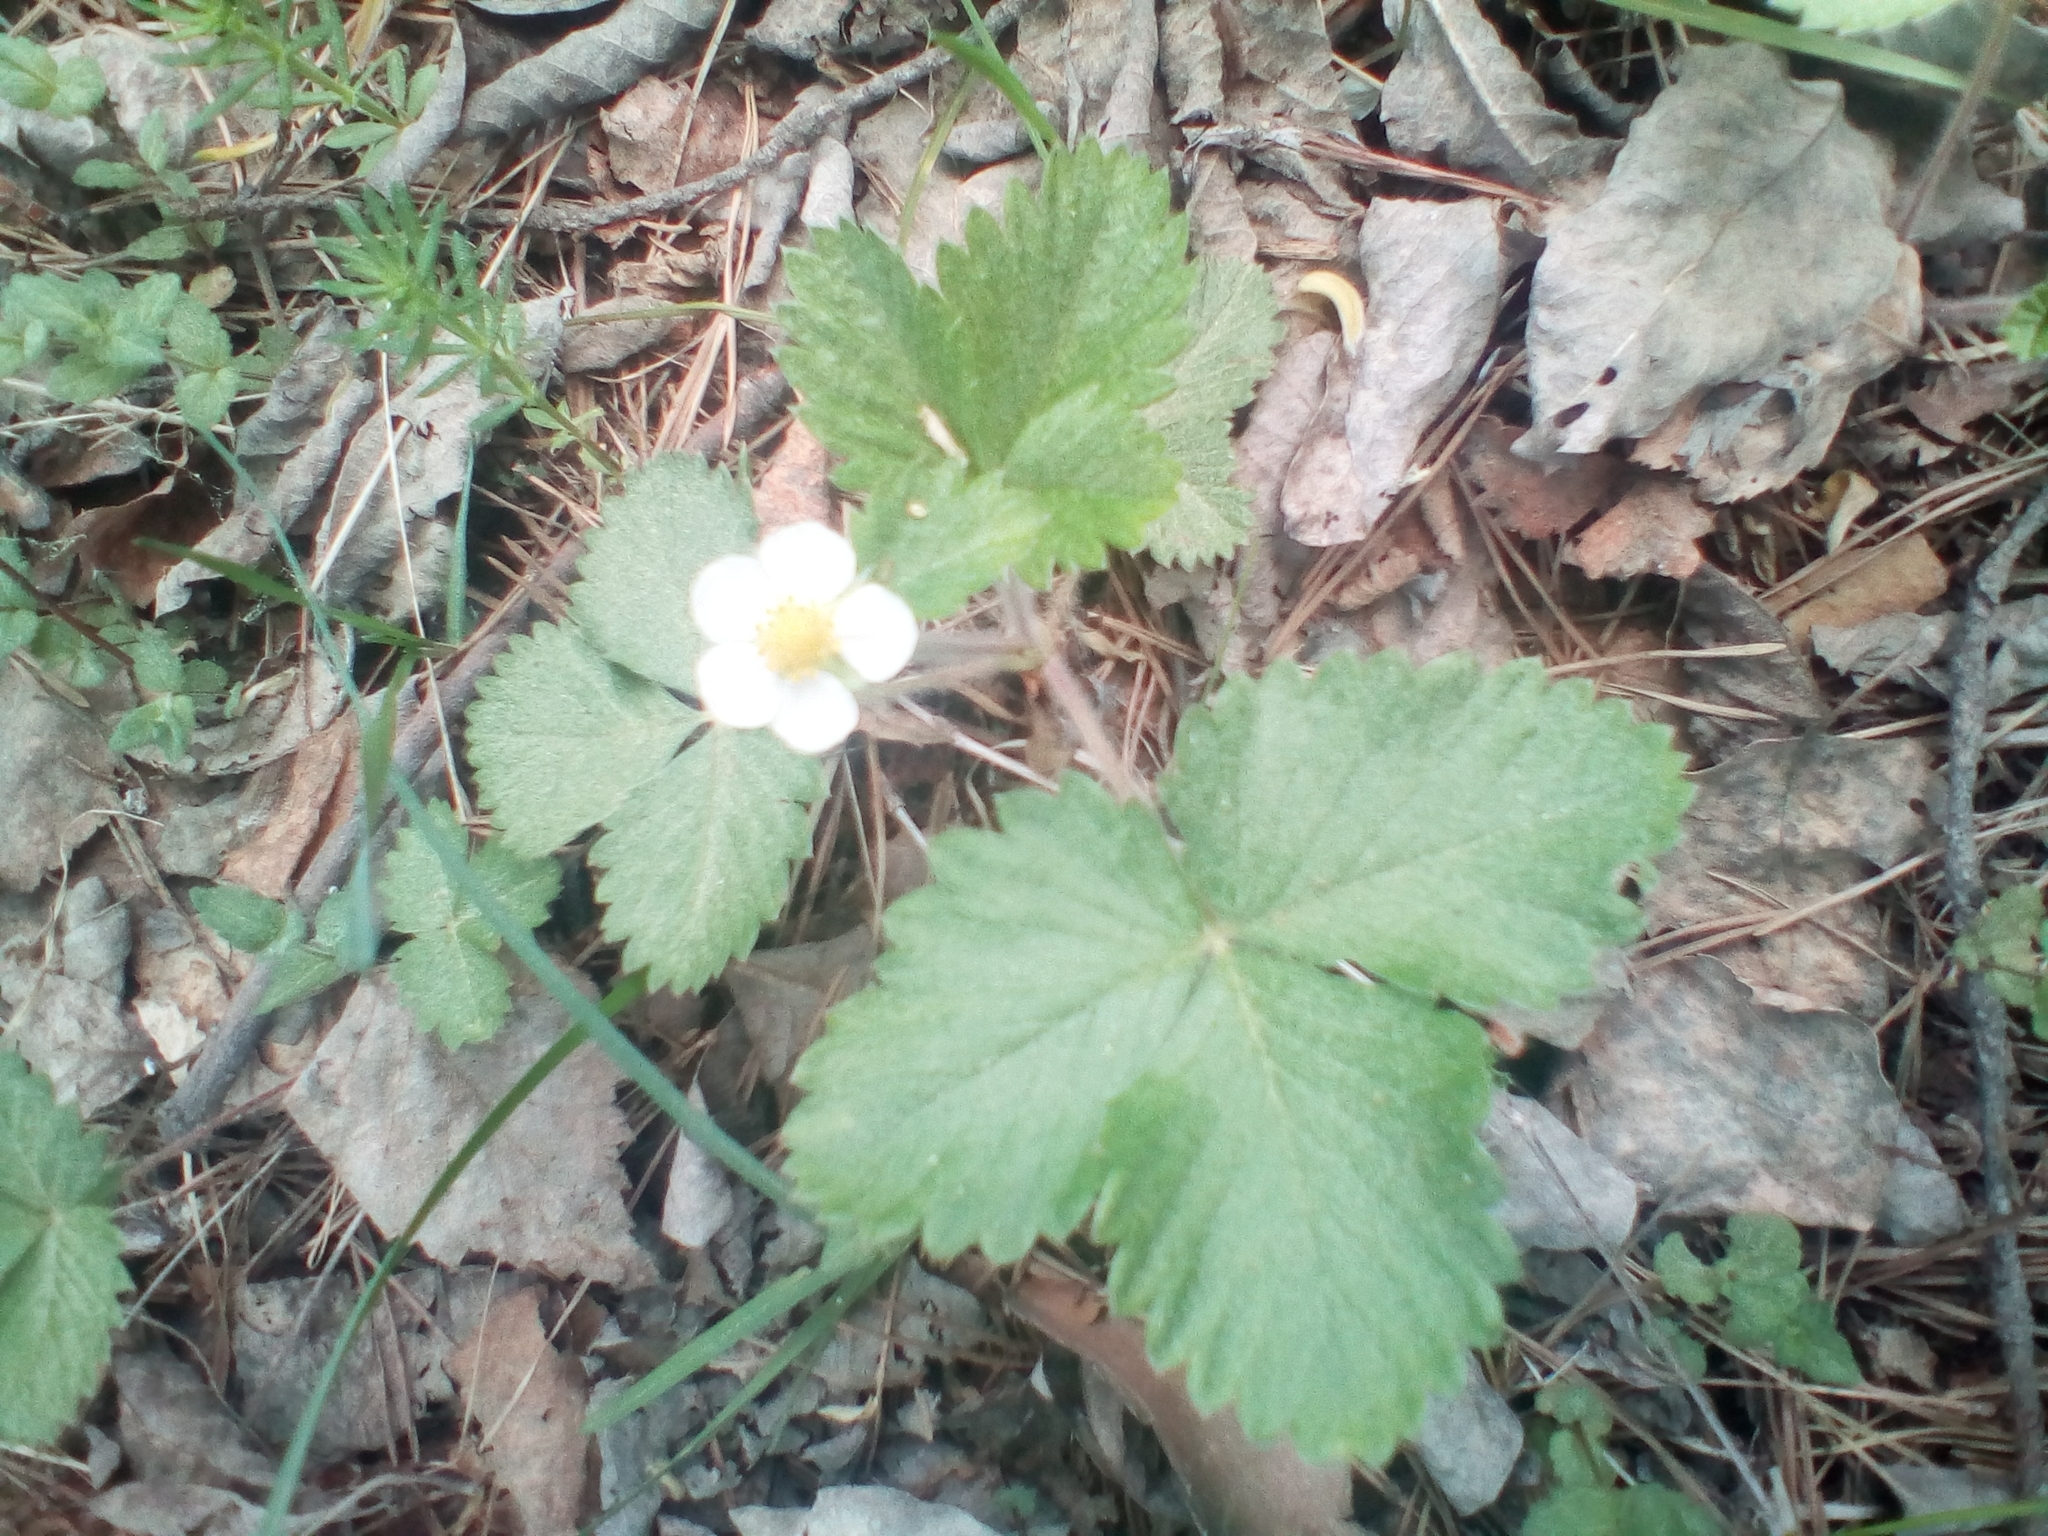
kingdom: Plantae
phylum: Tracheophyta
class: Magnoliopsida
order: Rosales
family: Rosaceae
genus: Fragaria
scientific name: Fragaria vesca
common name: Wild strawberry
